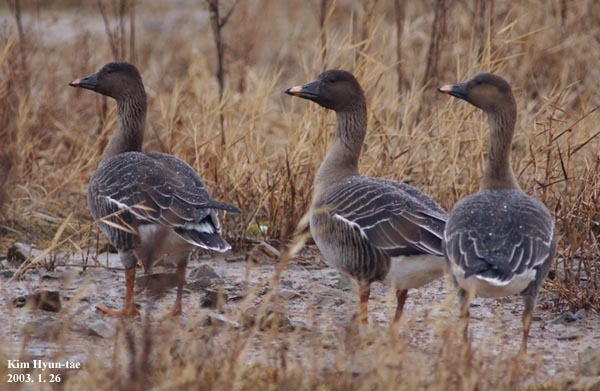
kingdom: Animalia
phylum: Chordata
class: Aves
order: Anseriformes
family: Anatidae
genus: Anser
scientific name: Anser fabalis
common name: Bean goose
